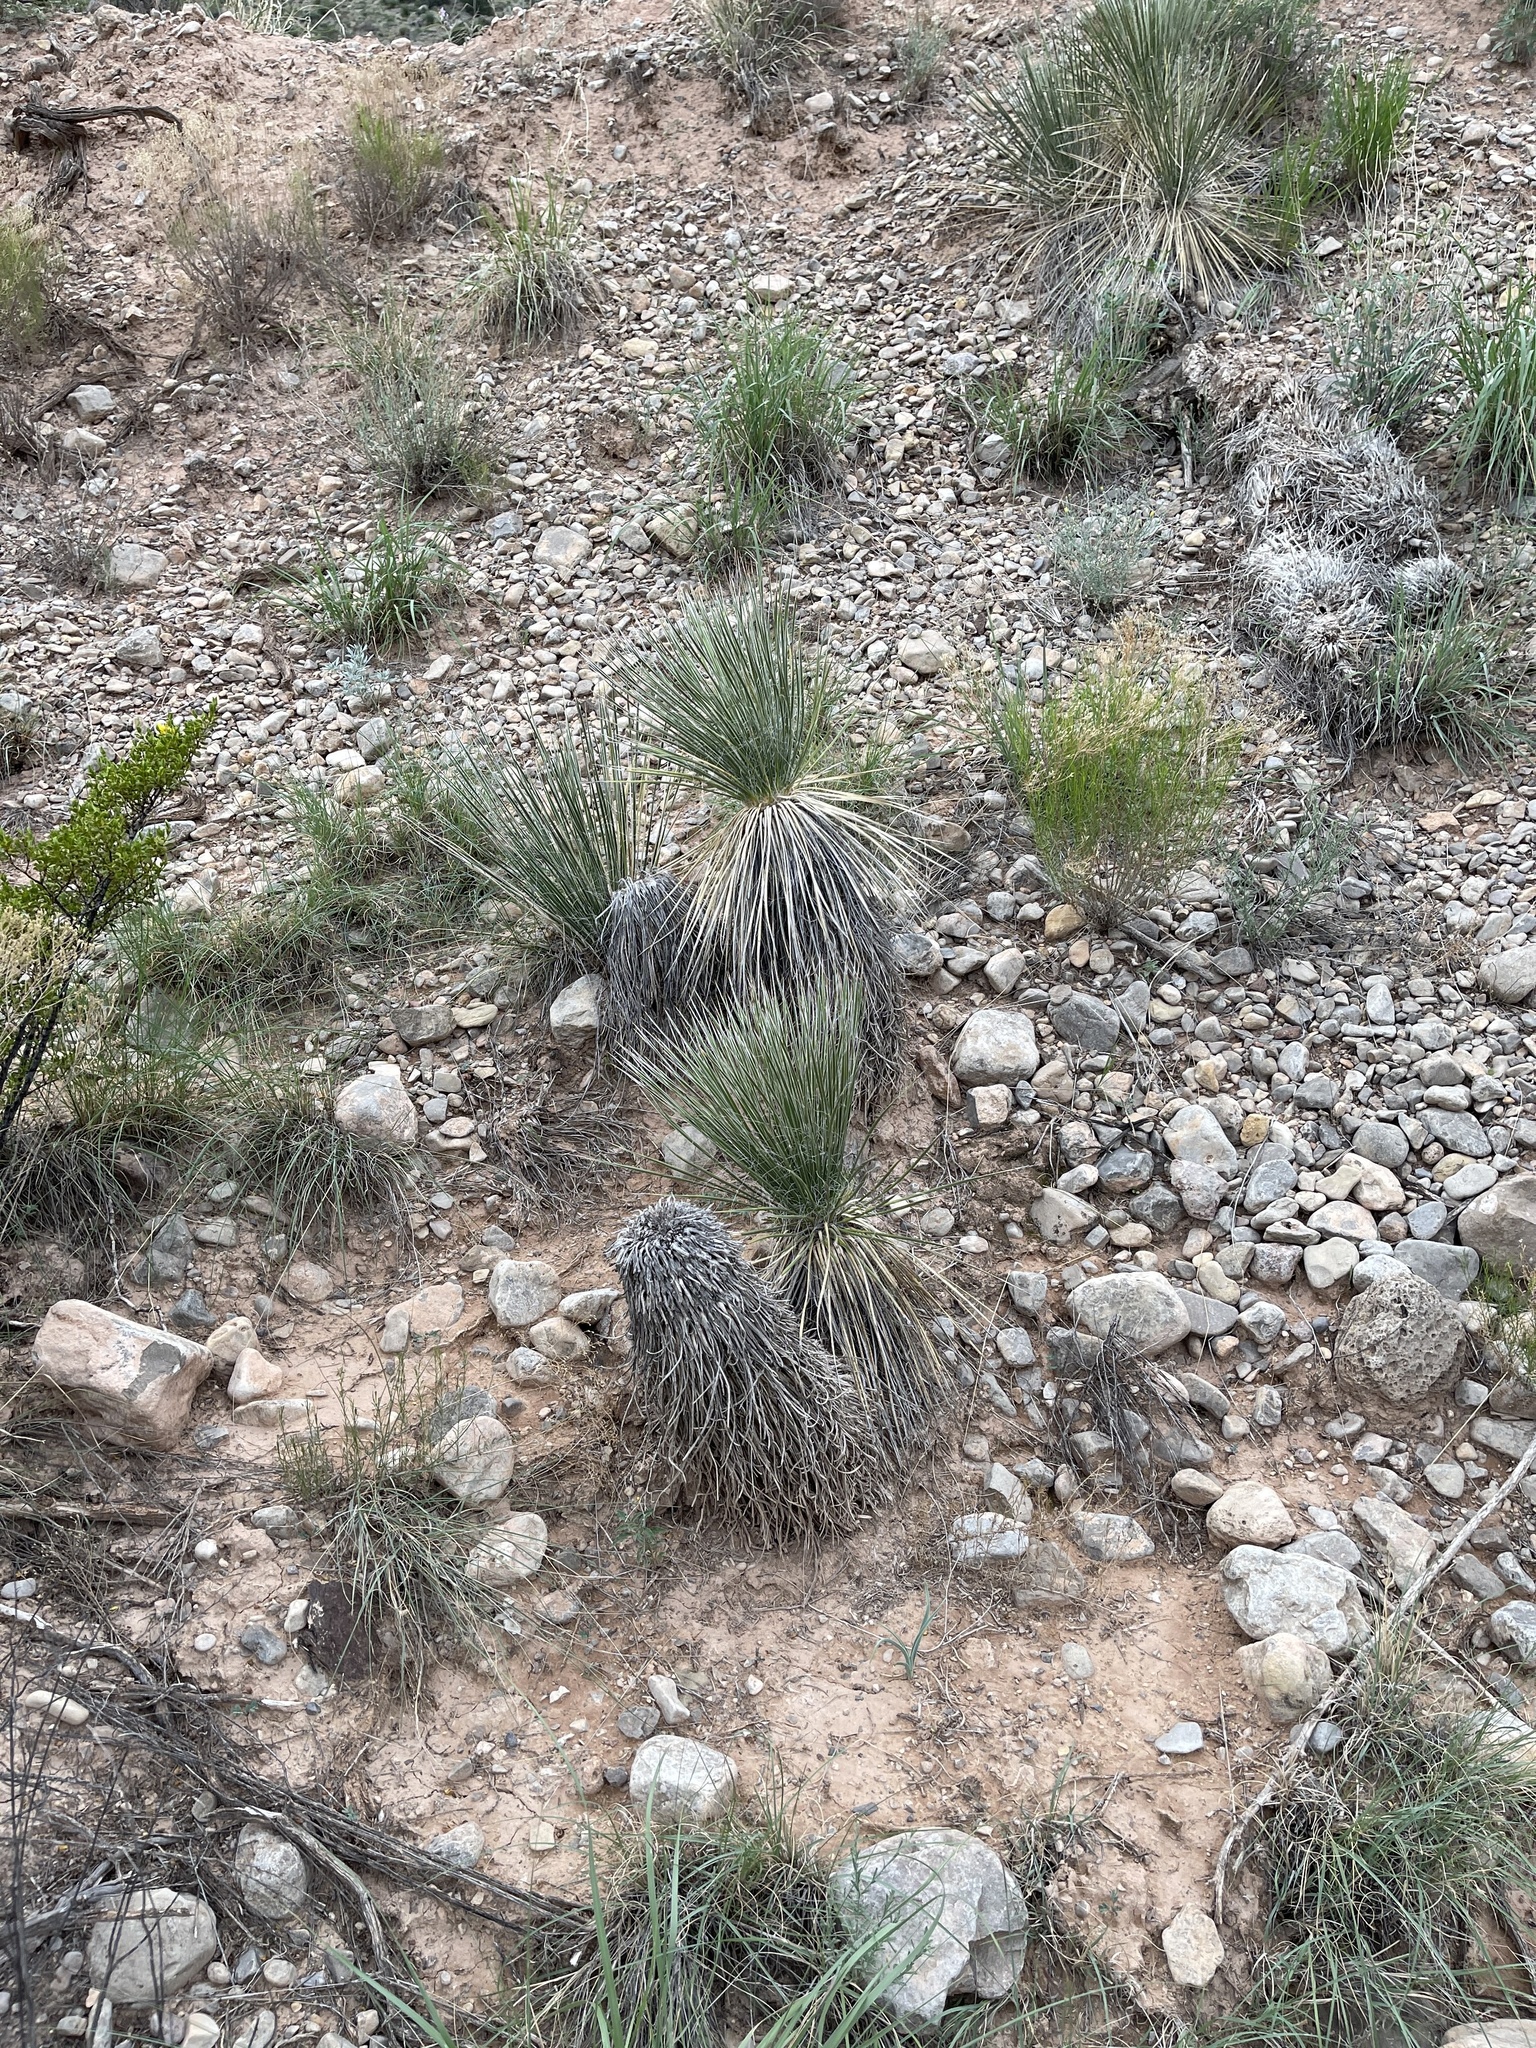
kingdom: Plantae
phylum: Tracheophyta
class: Liliopsida
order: Asparagales
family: Asparagaceae
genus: Yucca
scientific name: Yucca elata
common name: Palmella
